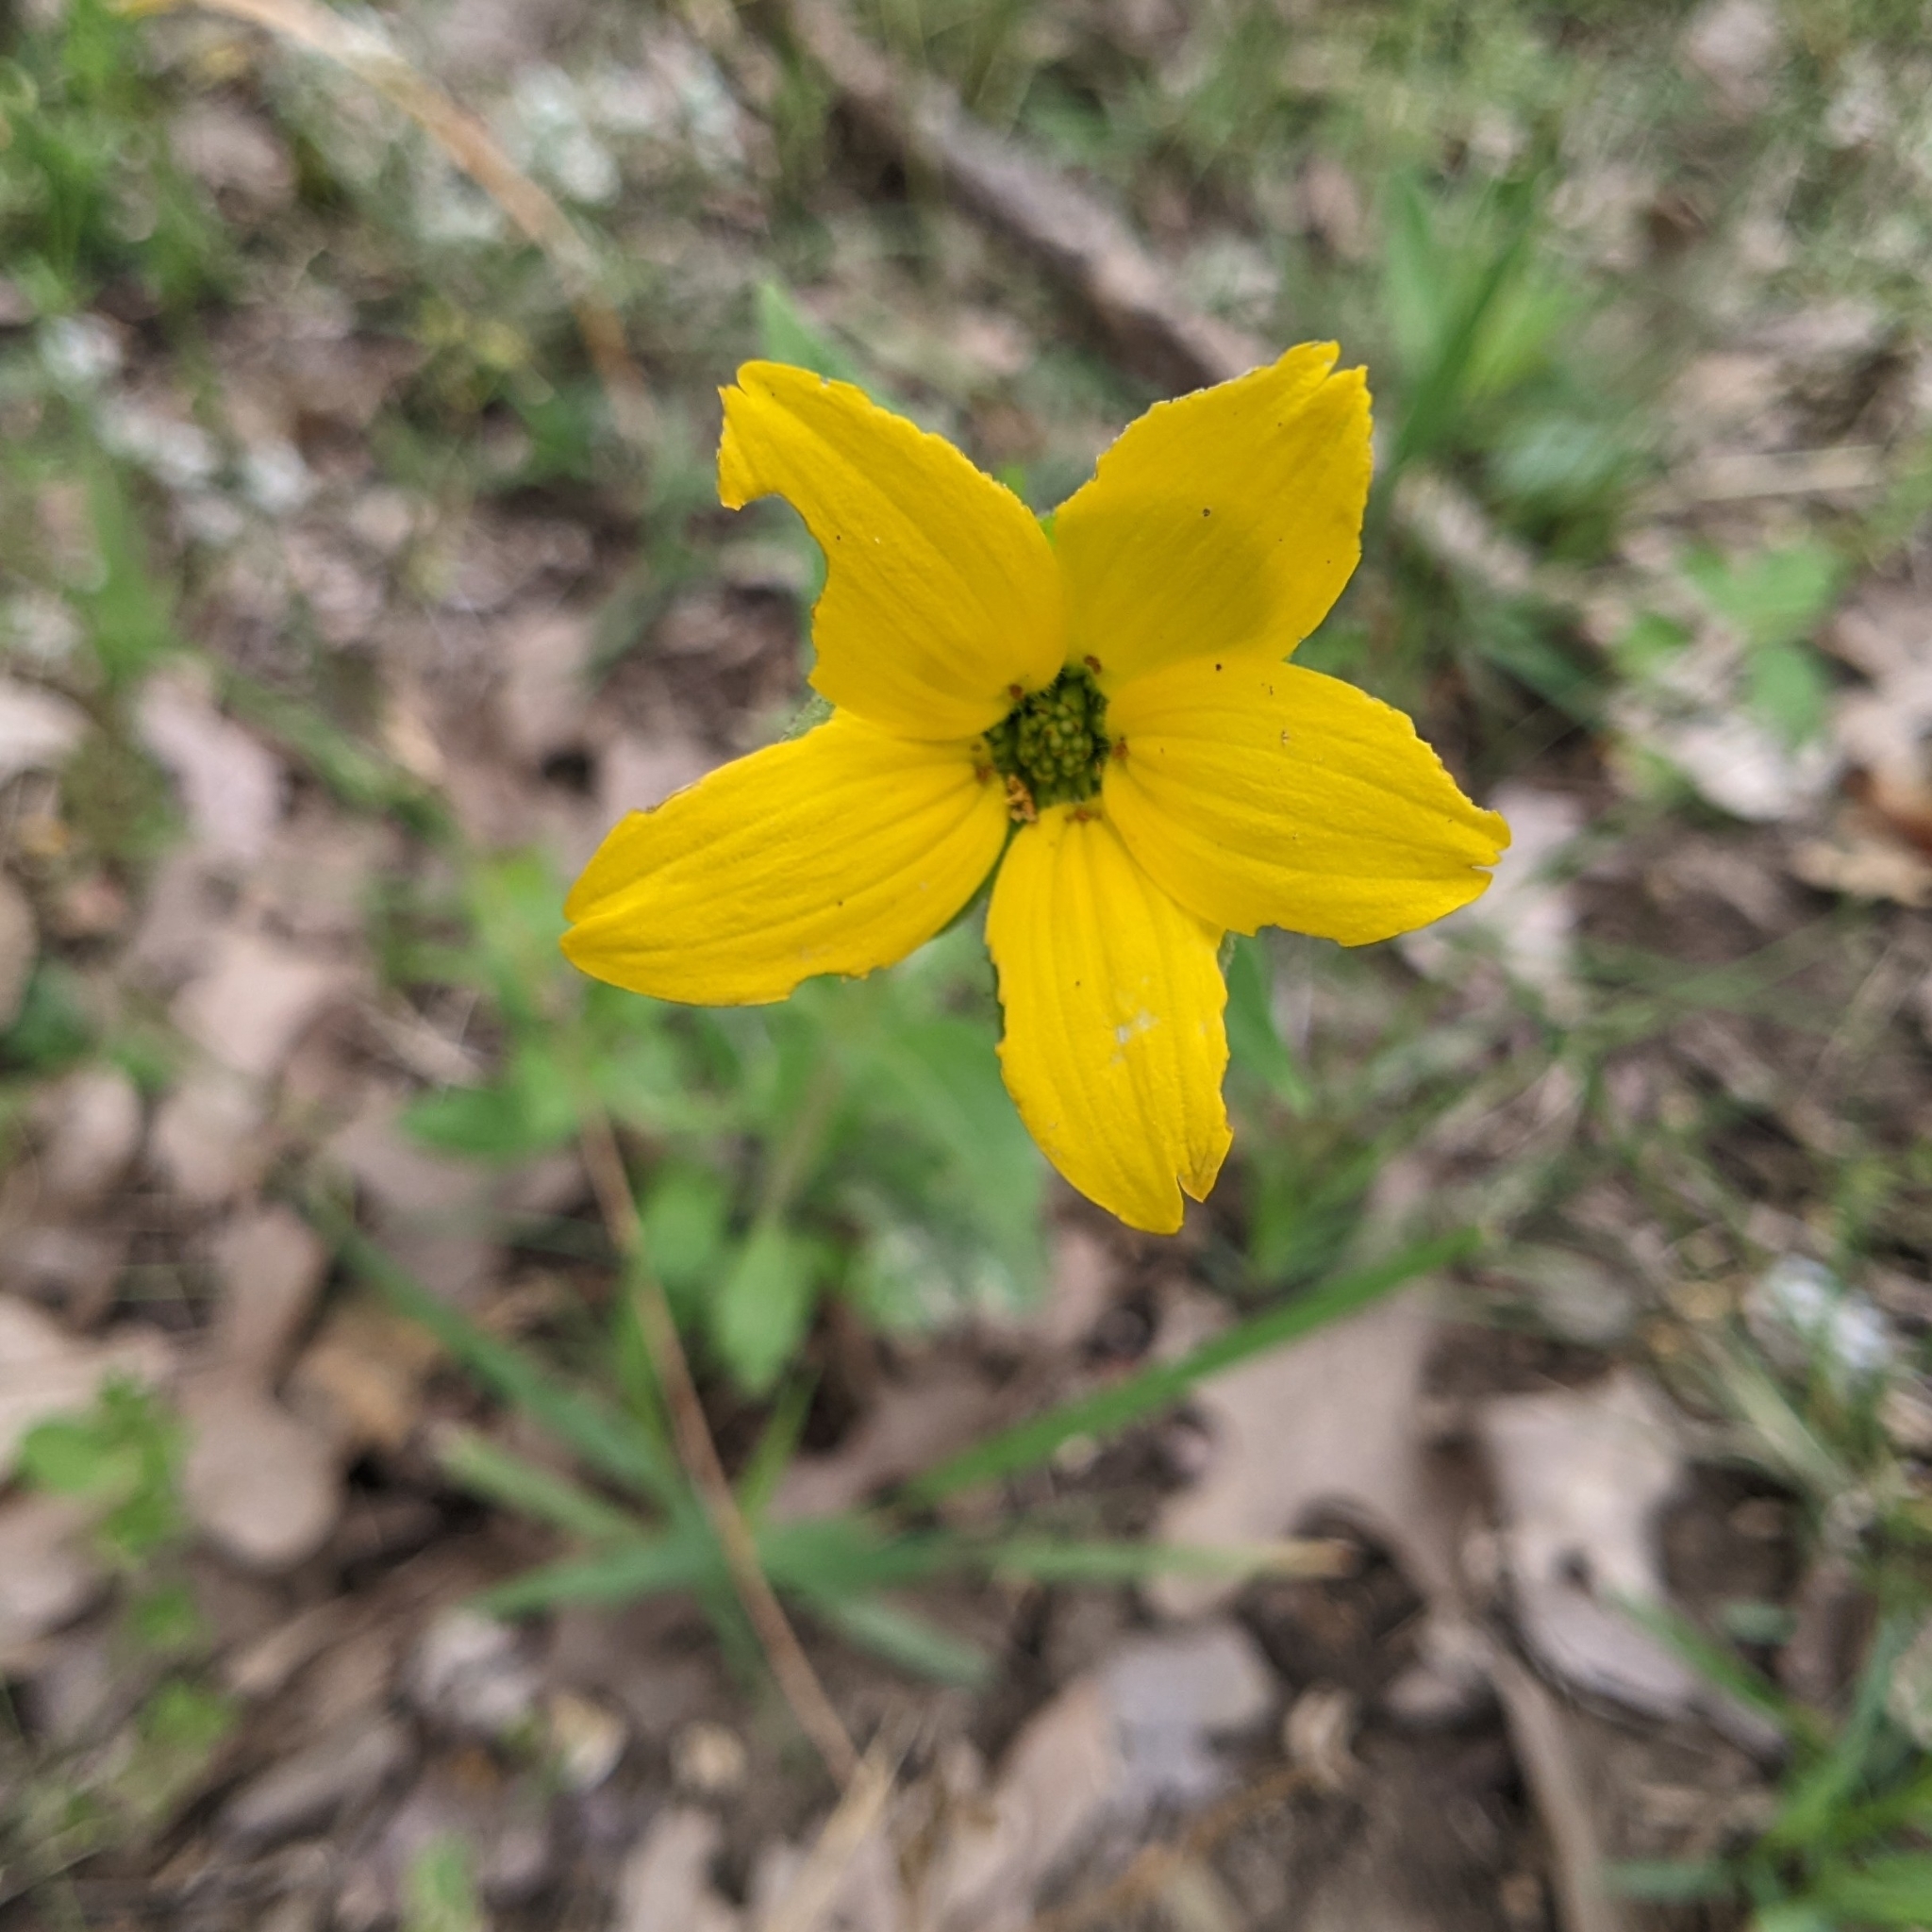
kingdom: Plantae
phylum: Tracheophyta
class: Magnoliopsida
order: Asterales
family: Asteraceae
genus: Lindheimera
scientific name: Lindheimera texana
